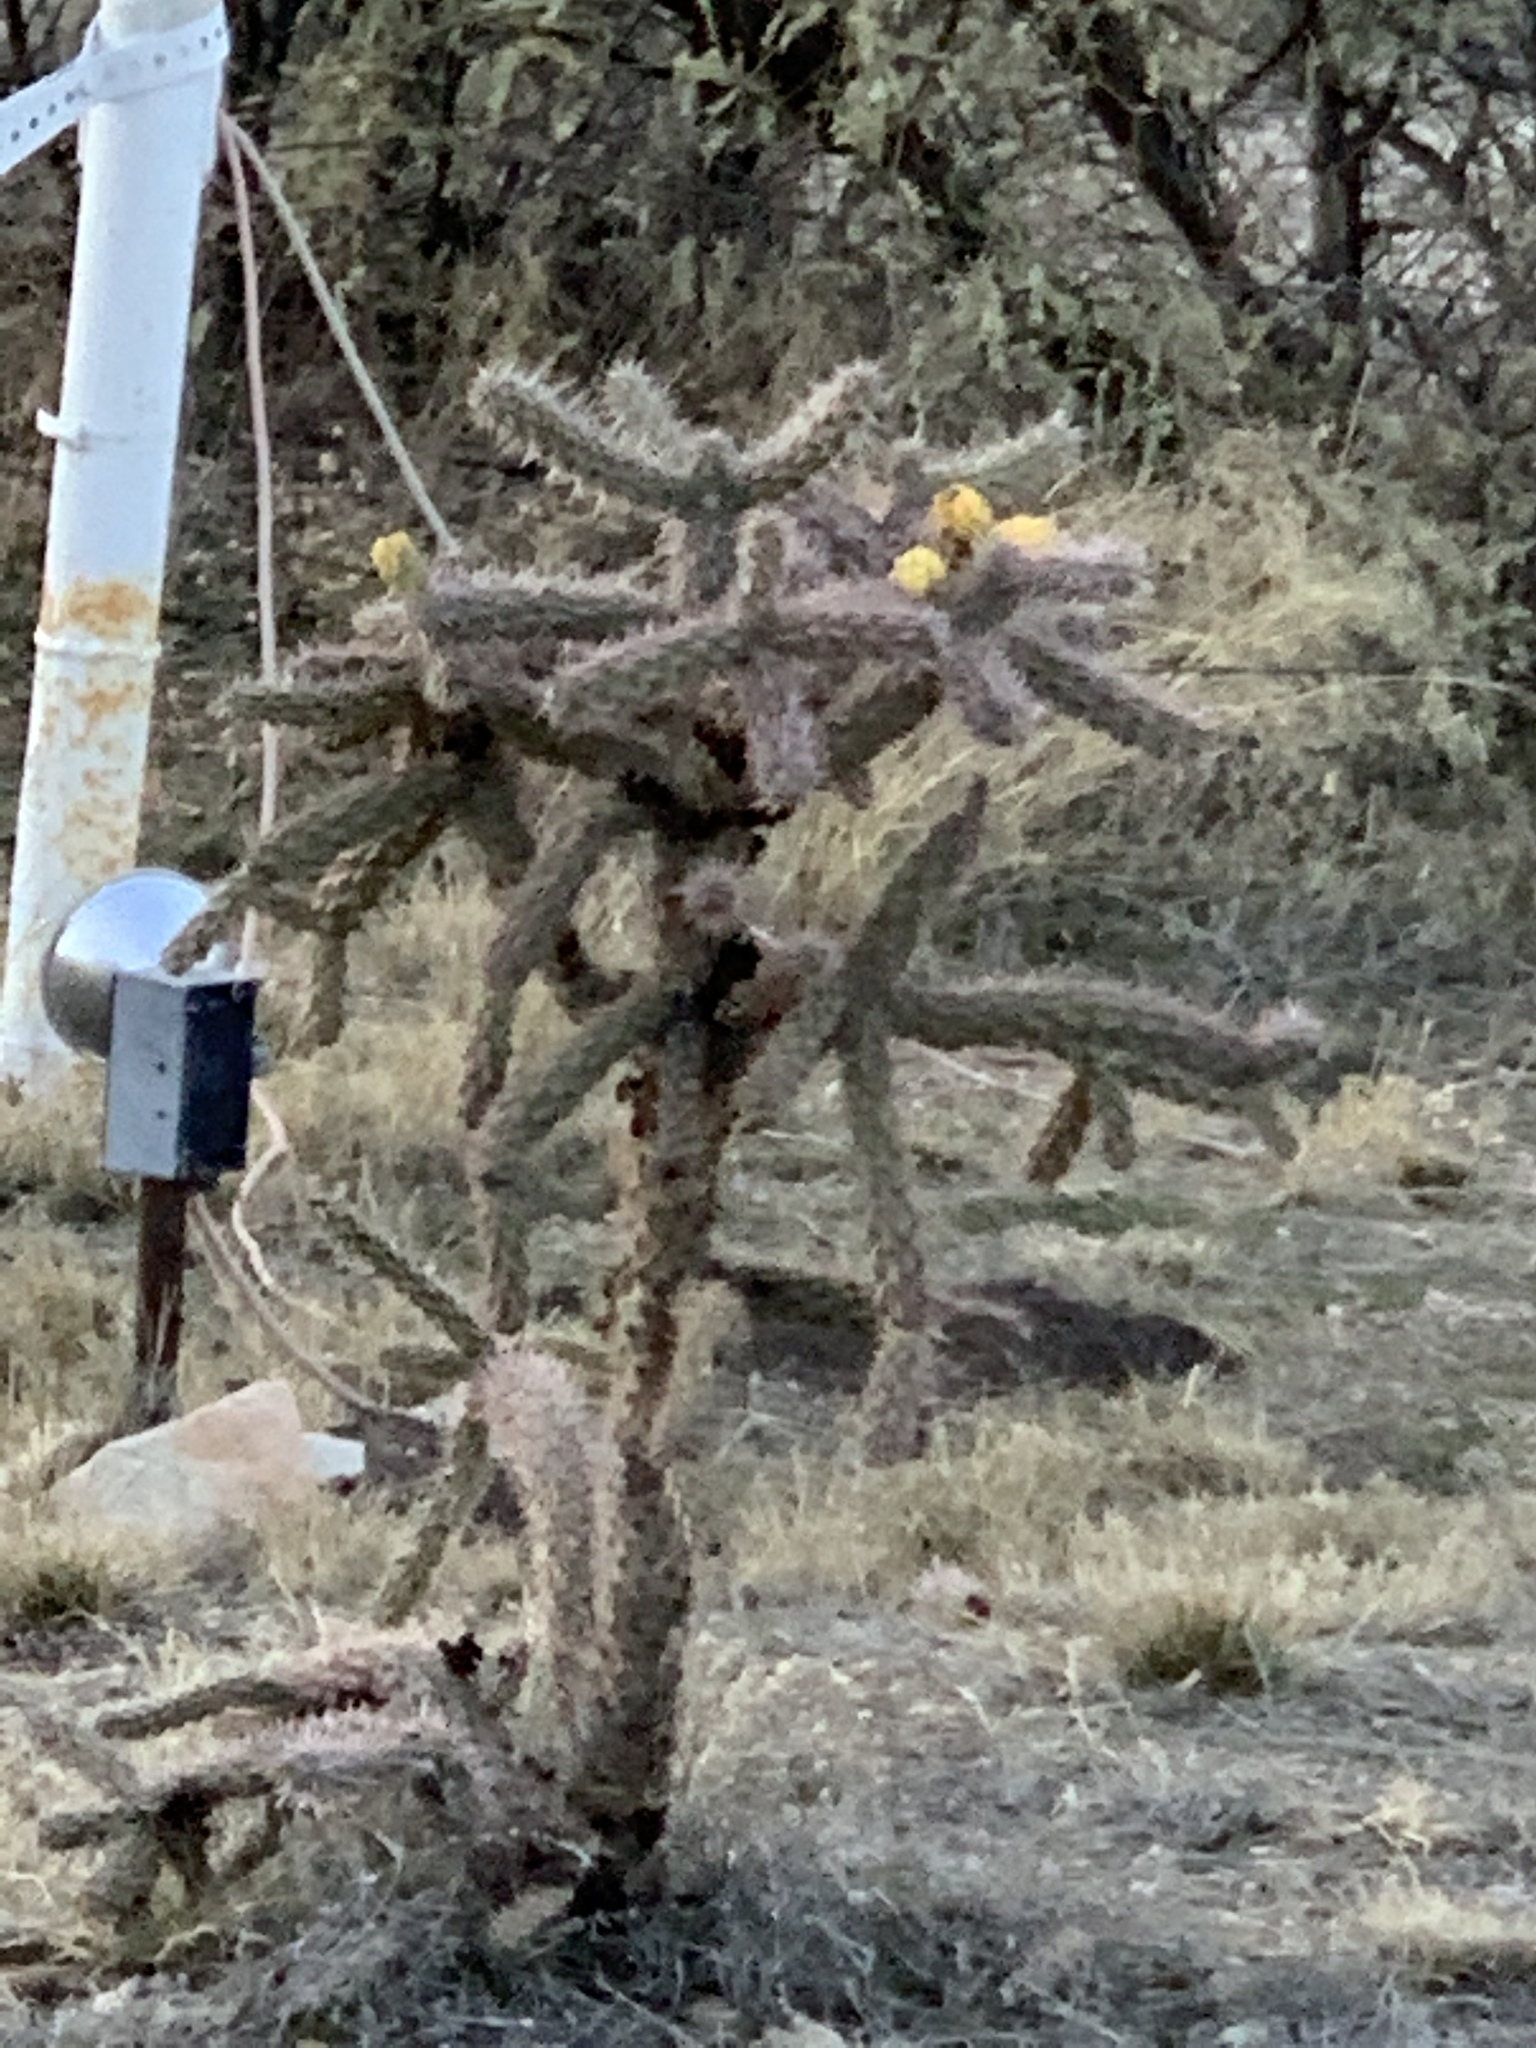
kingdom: Plantae
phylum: Tracheophyta
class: Magnoliopsida
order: Caryophyllales
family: Cactaceae
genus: Cylindropuntia
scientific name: Cylindropuntia imbricata
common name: Candelabrum cactus
